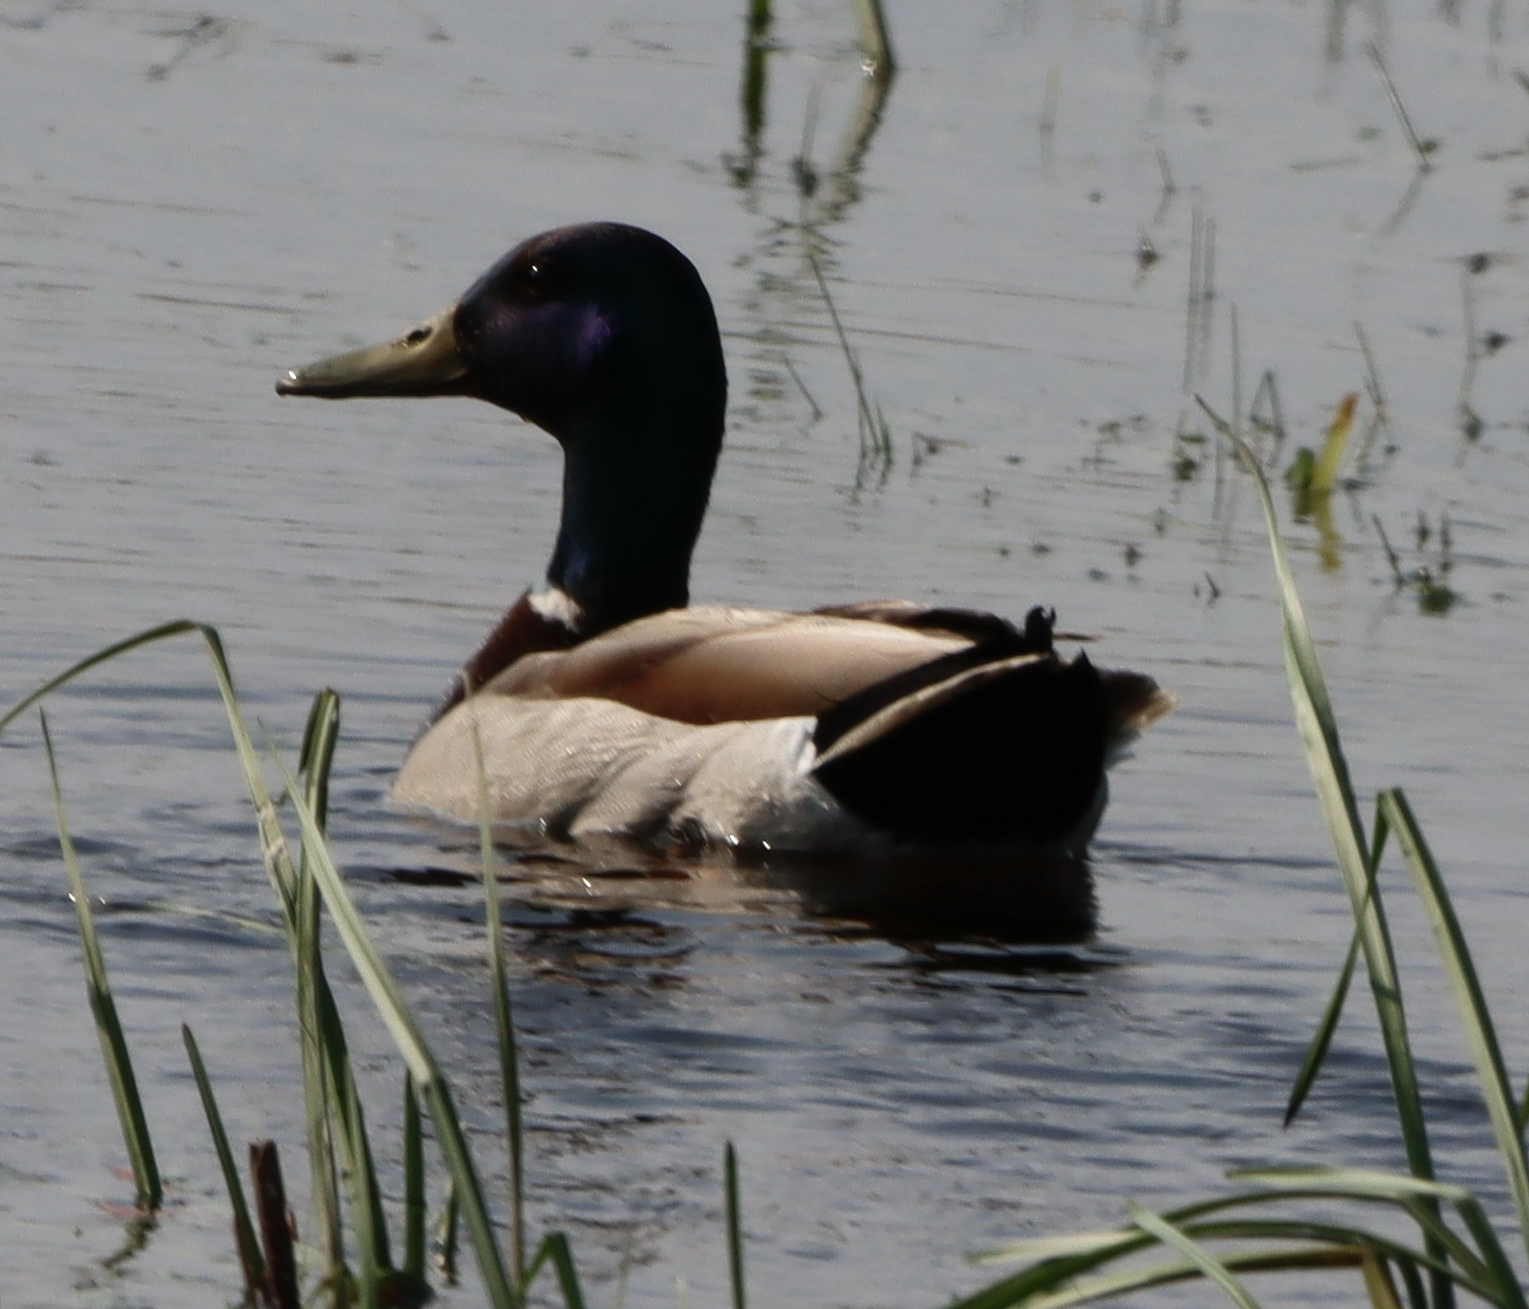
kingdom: Animalia
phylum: Chordata
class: Aves
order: Anseriformes
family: Anatidae
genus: Anas
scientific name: Anas platyrhynchos
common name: Mallard
